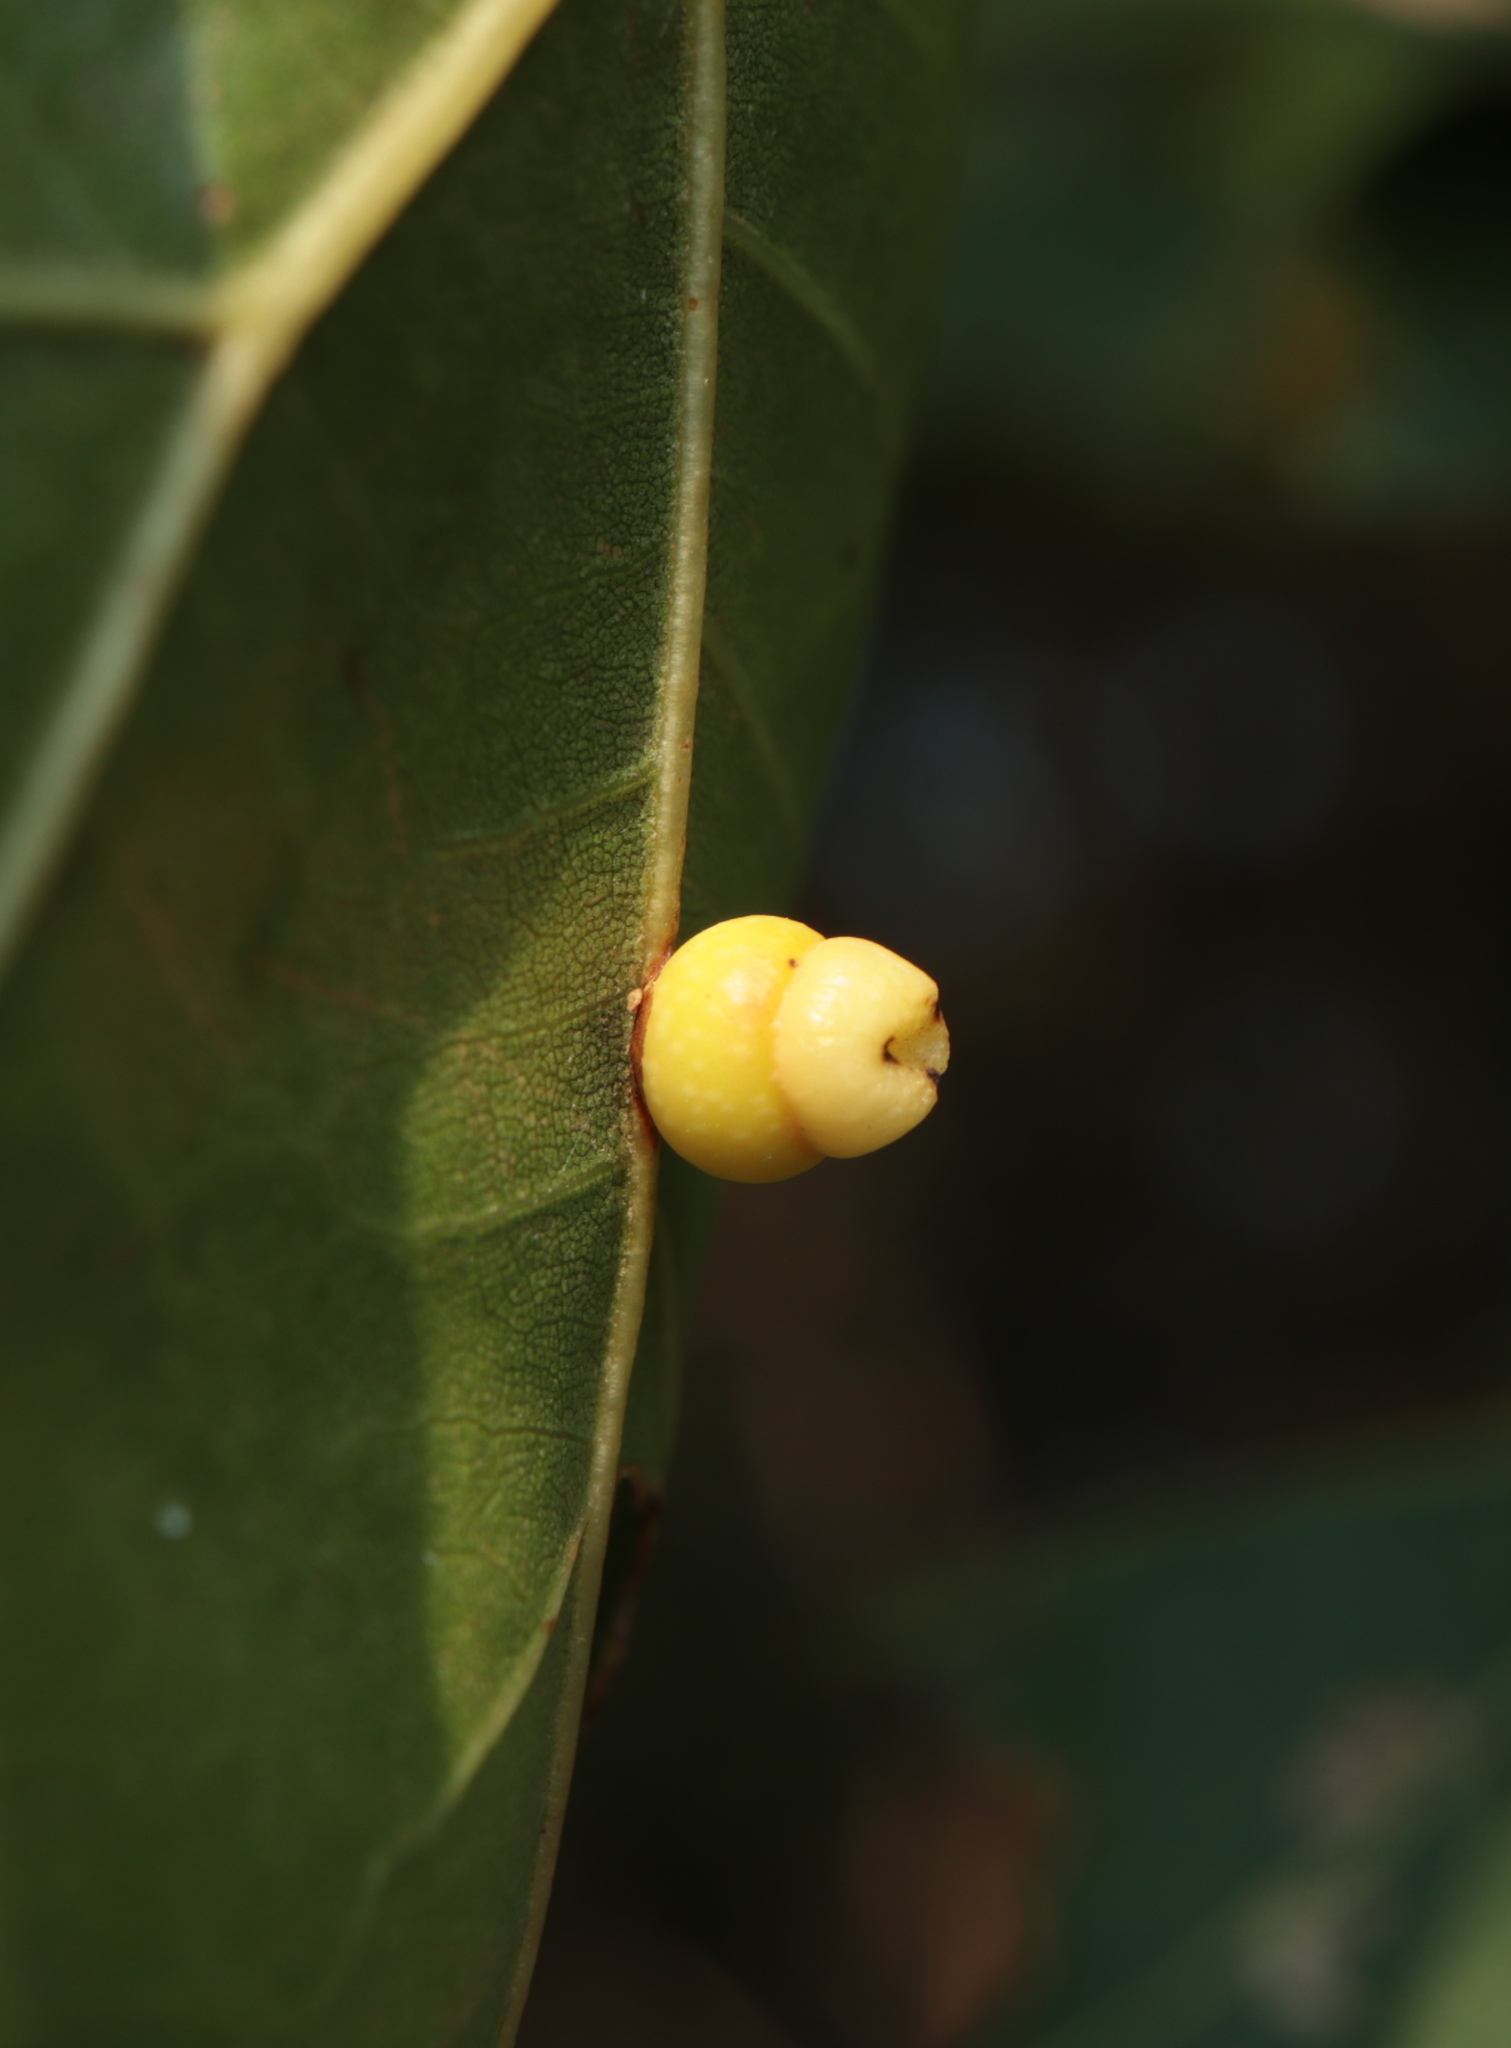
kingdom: Animalia
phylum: Arthropoda
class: Insecta
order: Hymenoptera
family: Cynipidae
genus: Kokkocynips
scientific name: Kokkocynips rileyi
